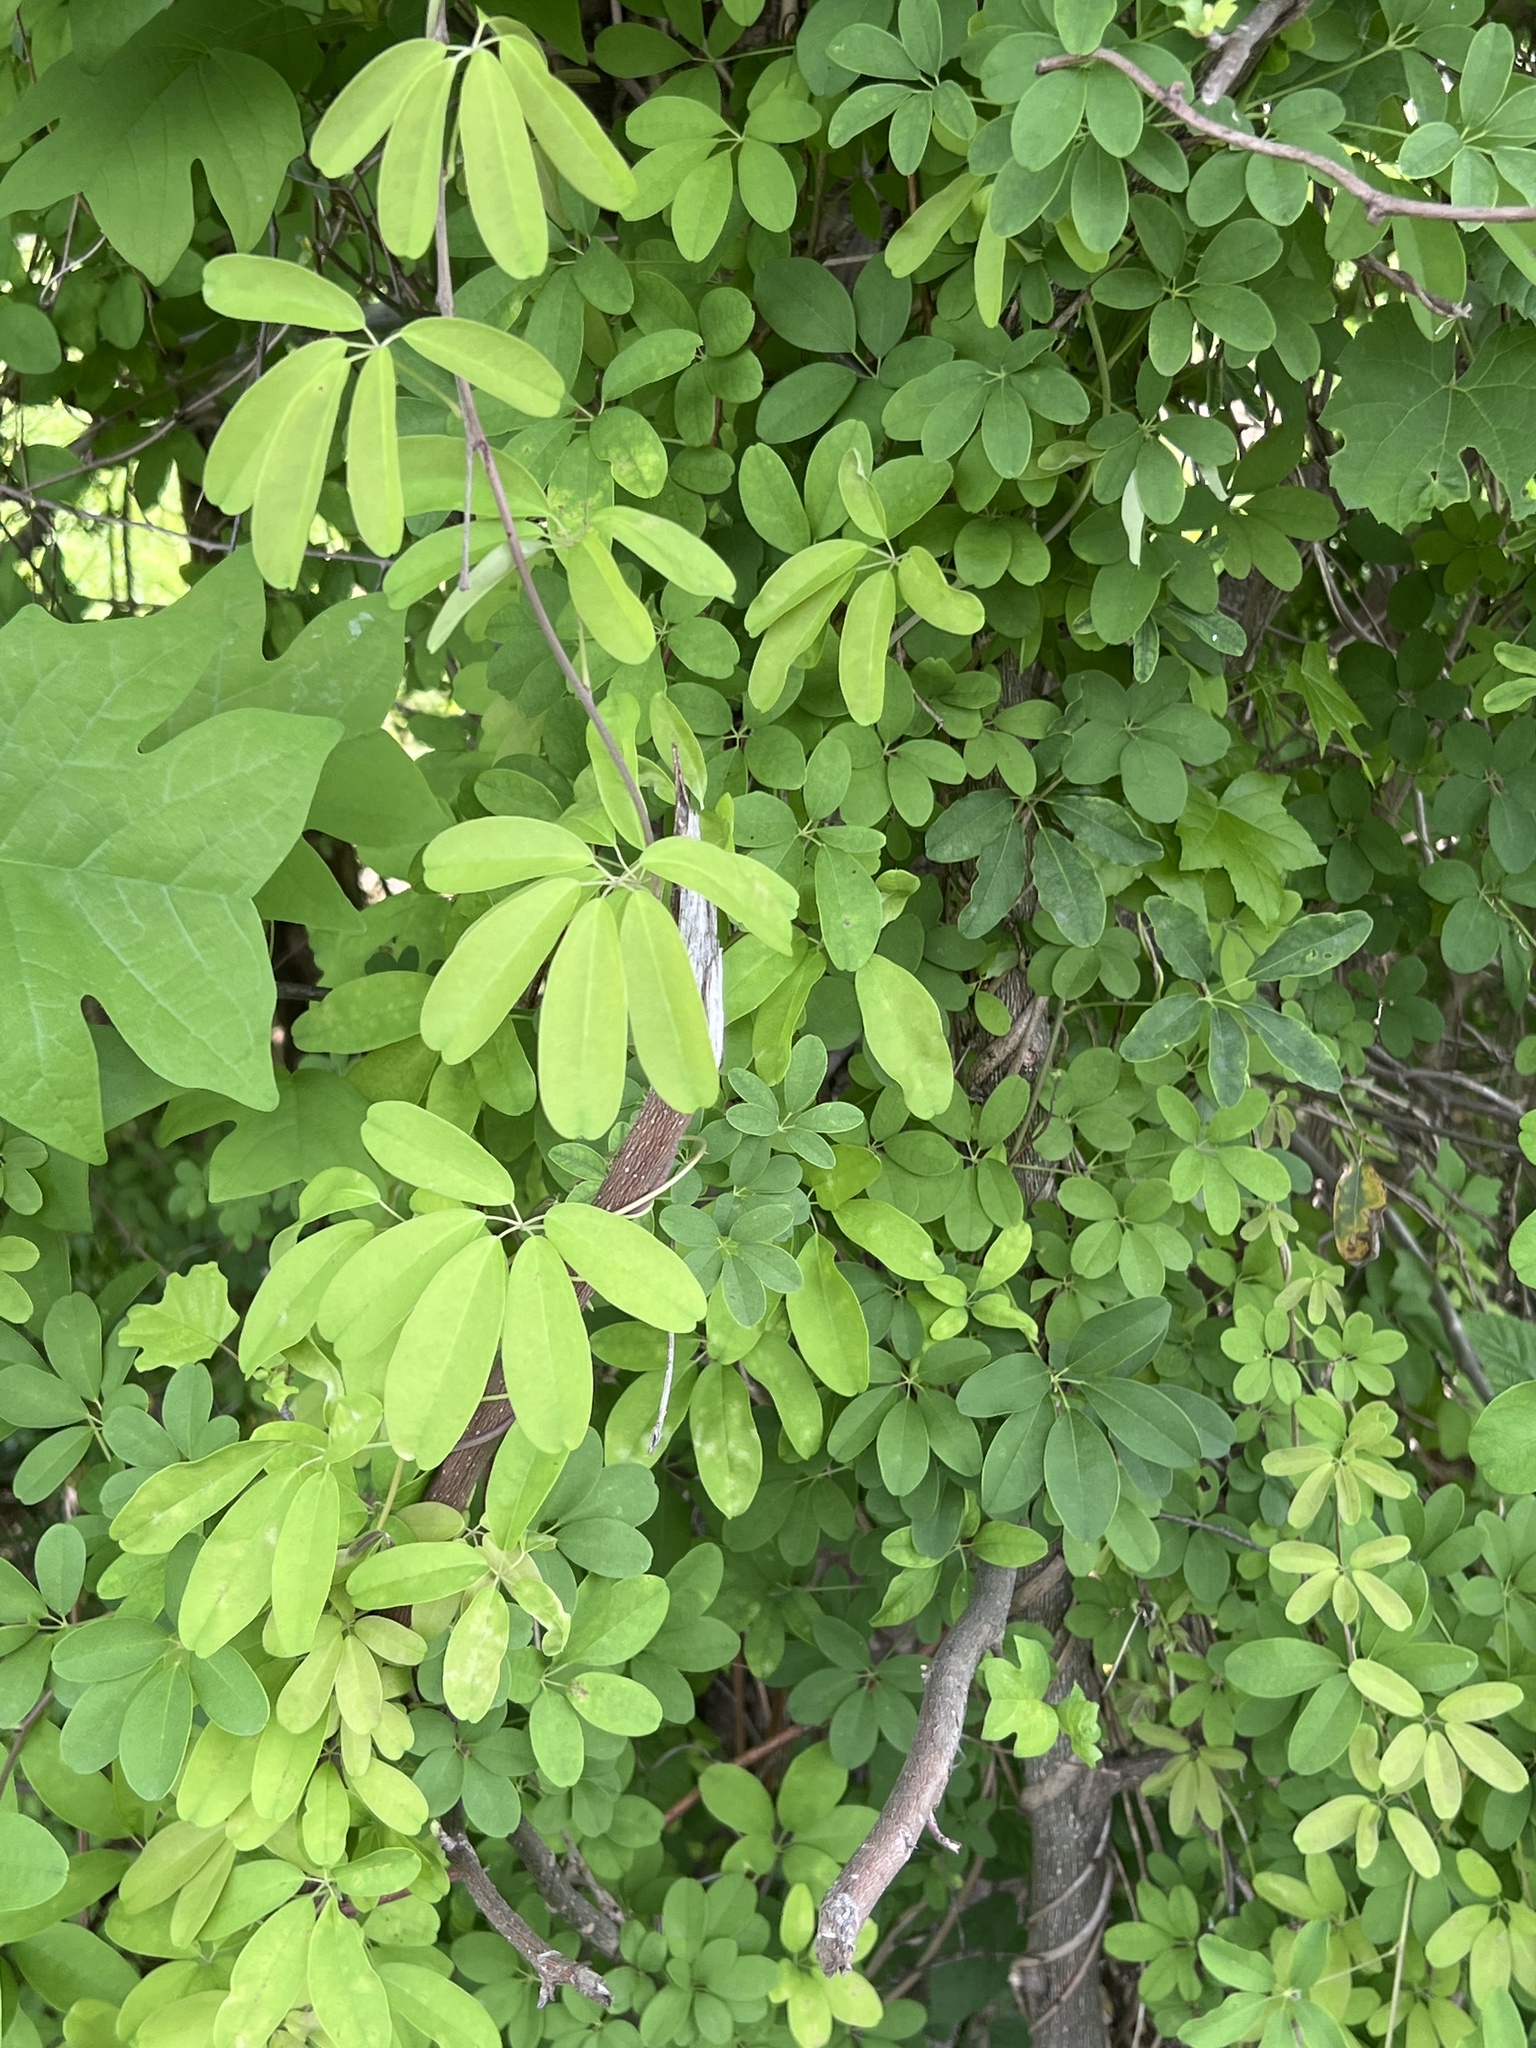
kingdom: Plantae
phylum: Tracheophyta
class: Magnoliopsida
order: Ranunculales
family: Lardizabalaceae
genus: Akebia
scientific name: Akebia quinata
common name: Five-leaf akebia
